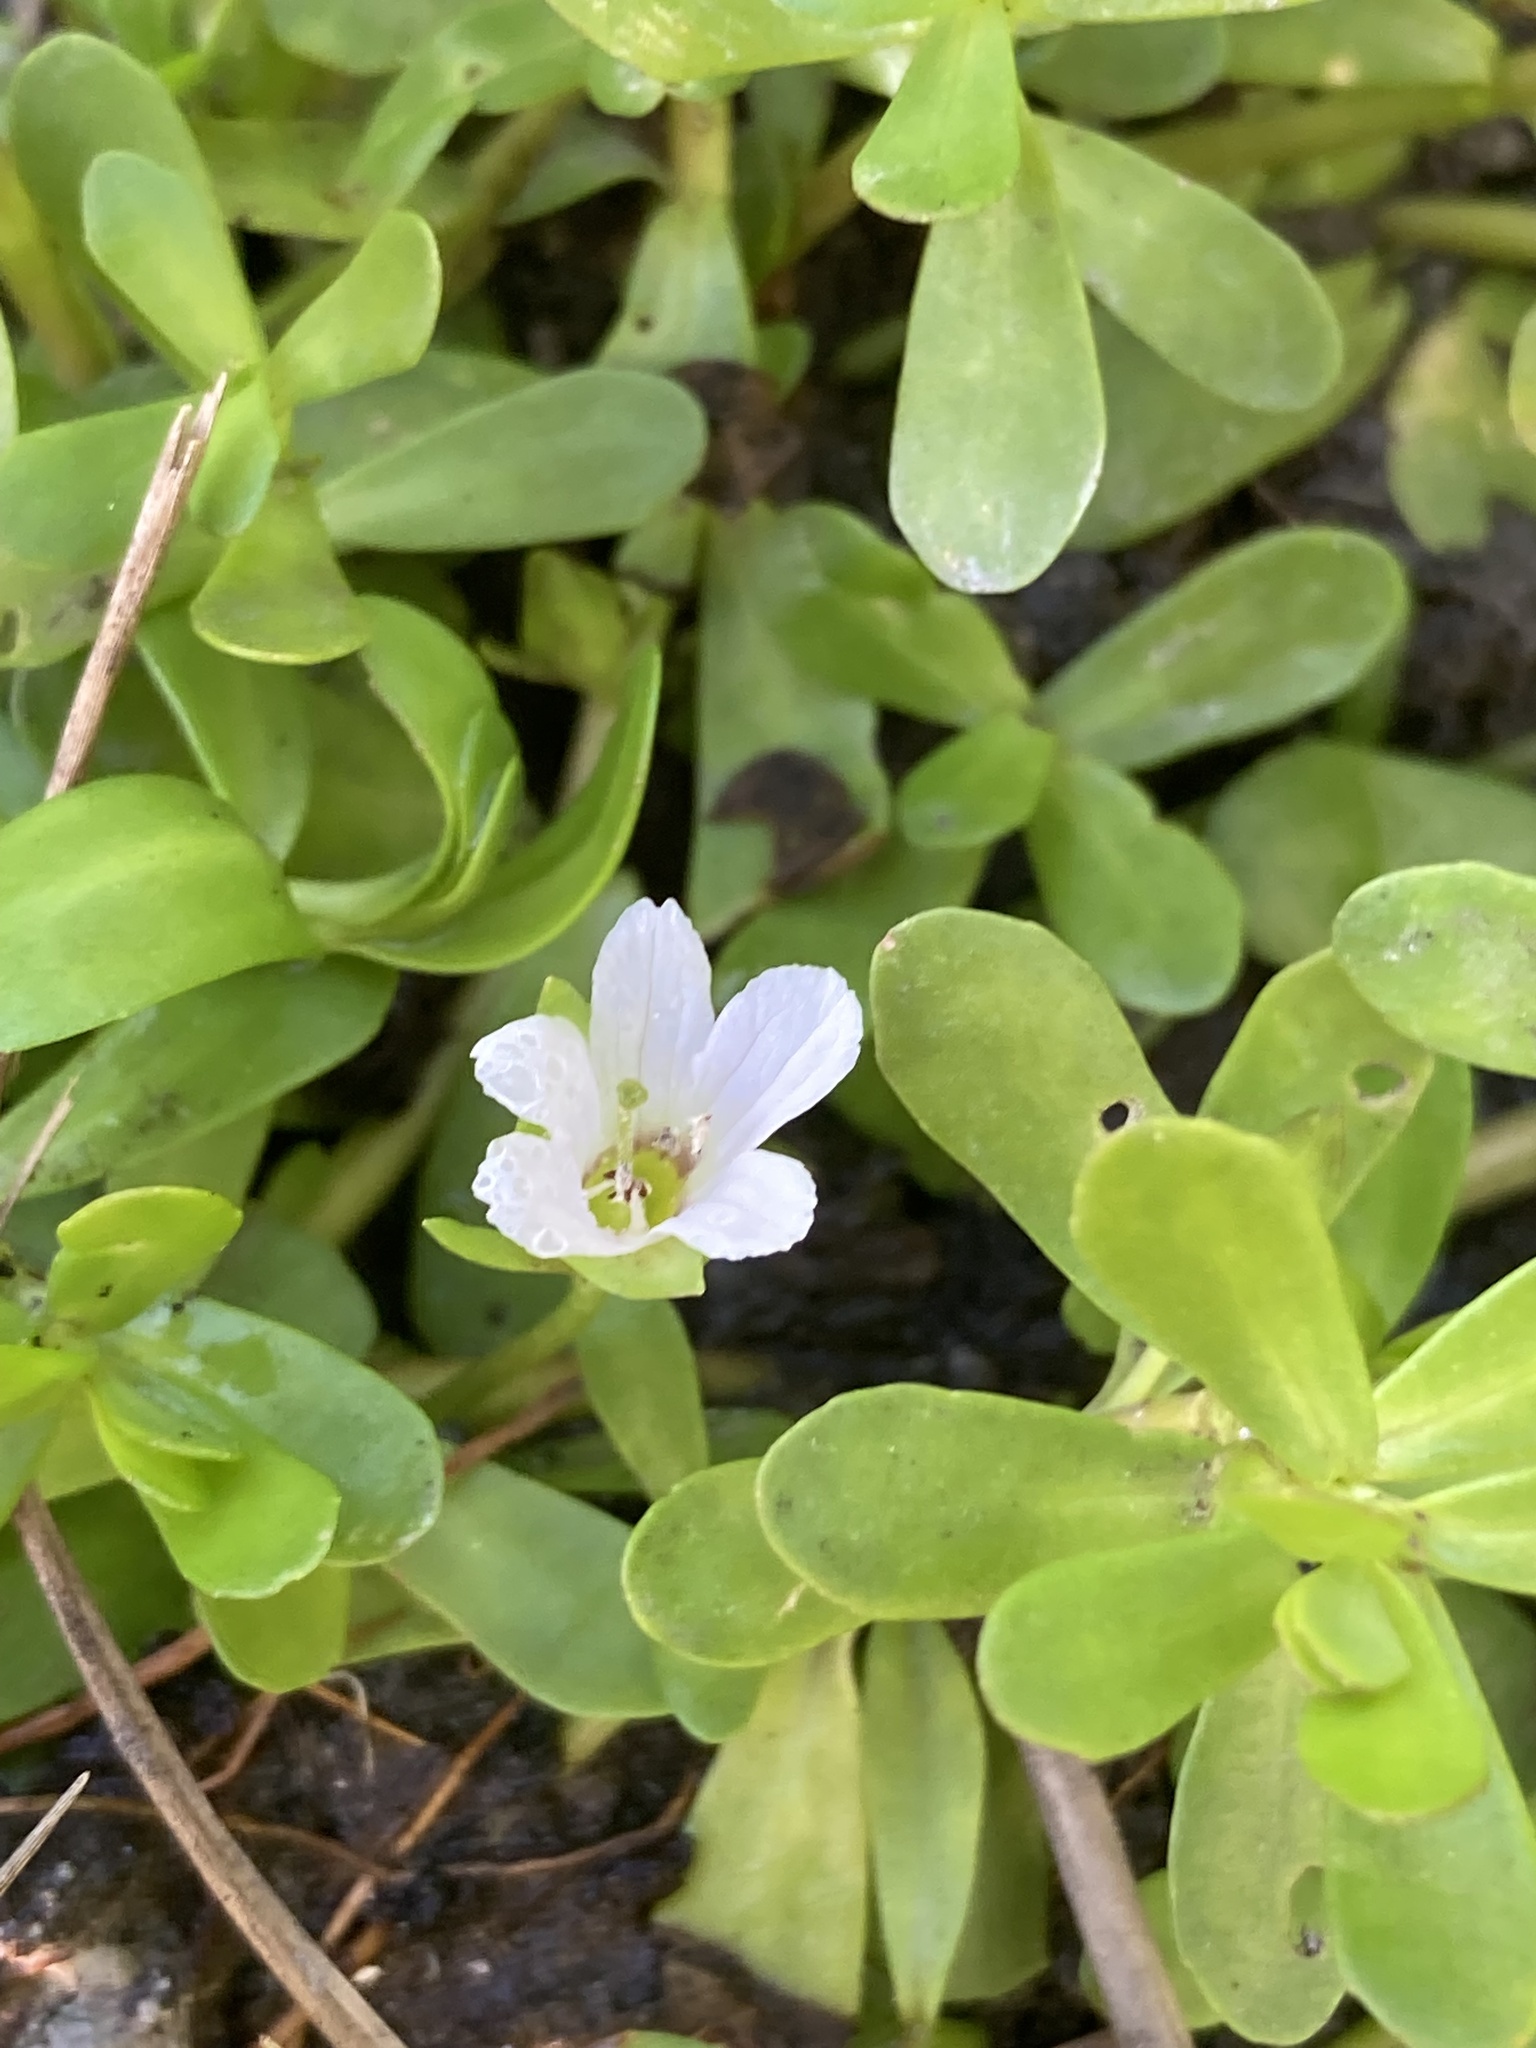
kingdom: Plantae
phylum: Tracheophyta
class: Magnoliopsida
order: Lamiales
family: Plantaginaceae
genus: Bacopa
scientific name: Bacopa monnieri
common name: Indian-pennywort
